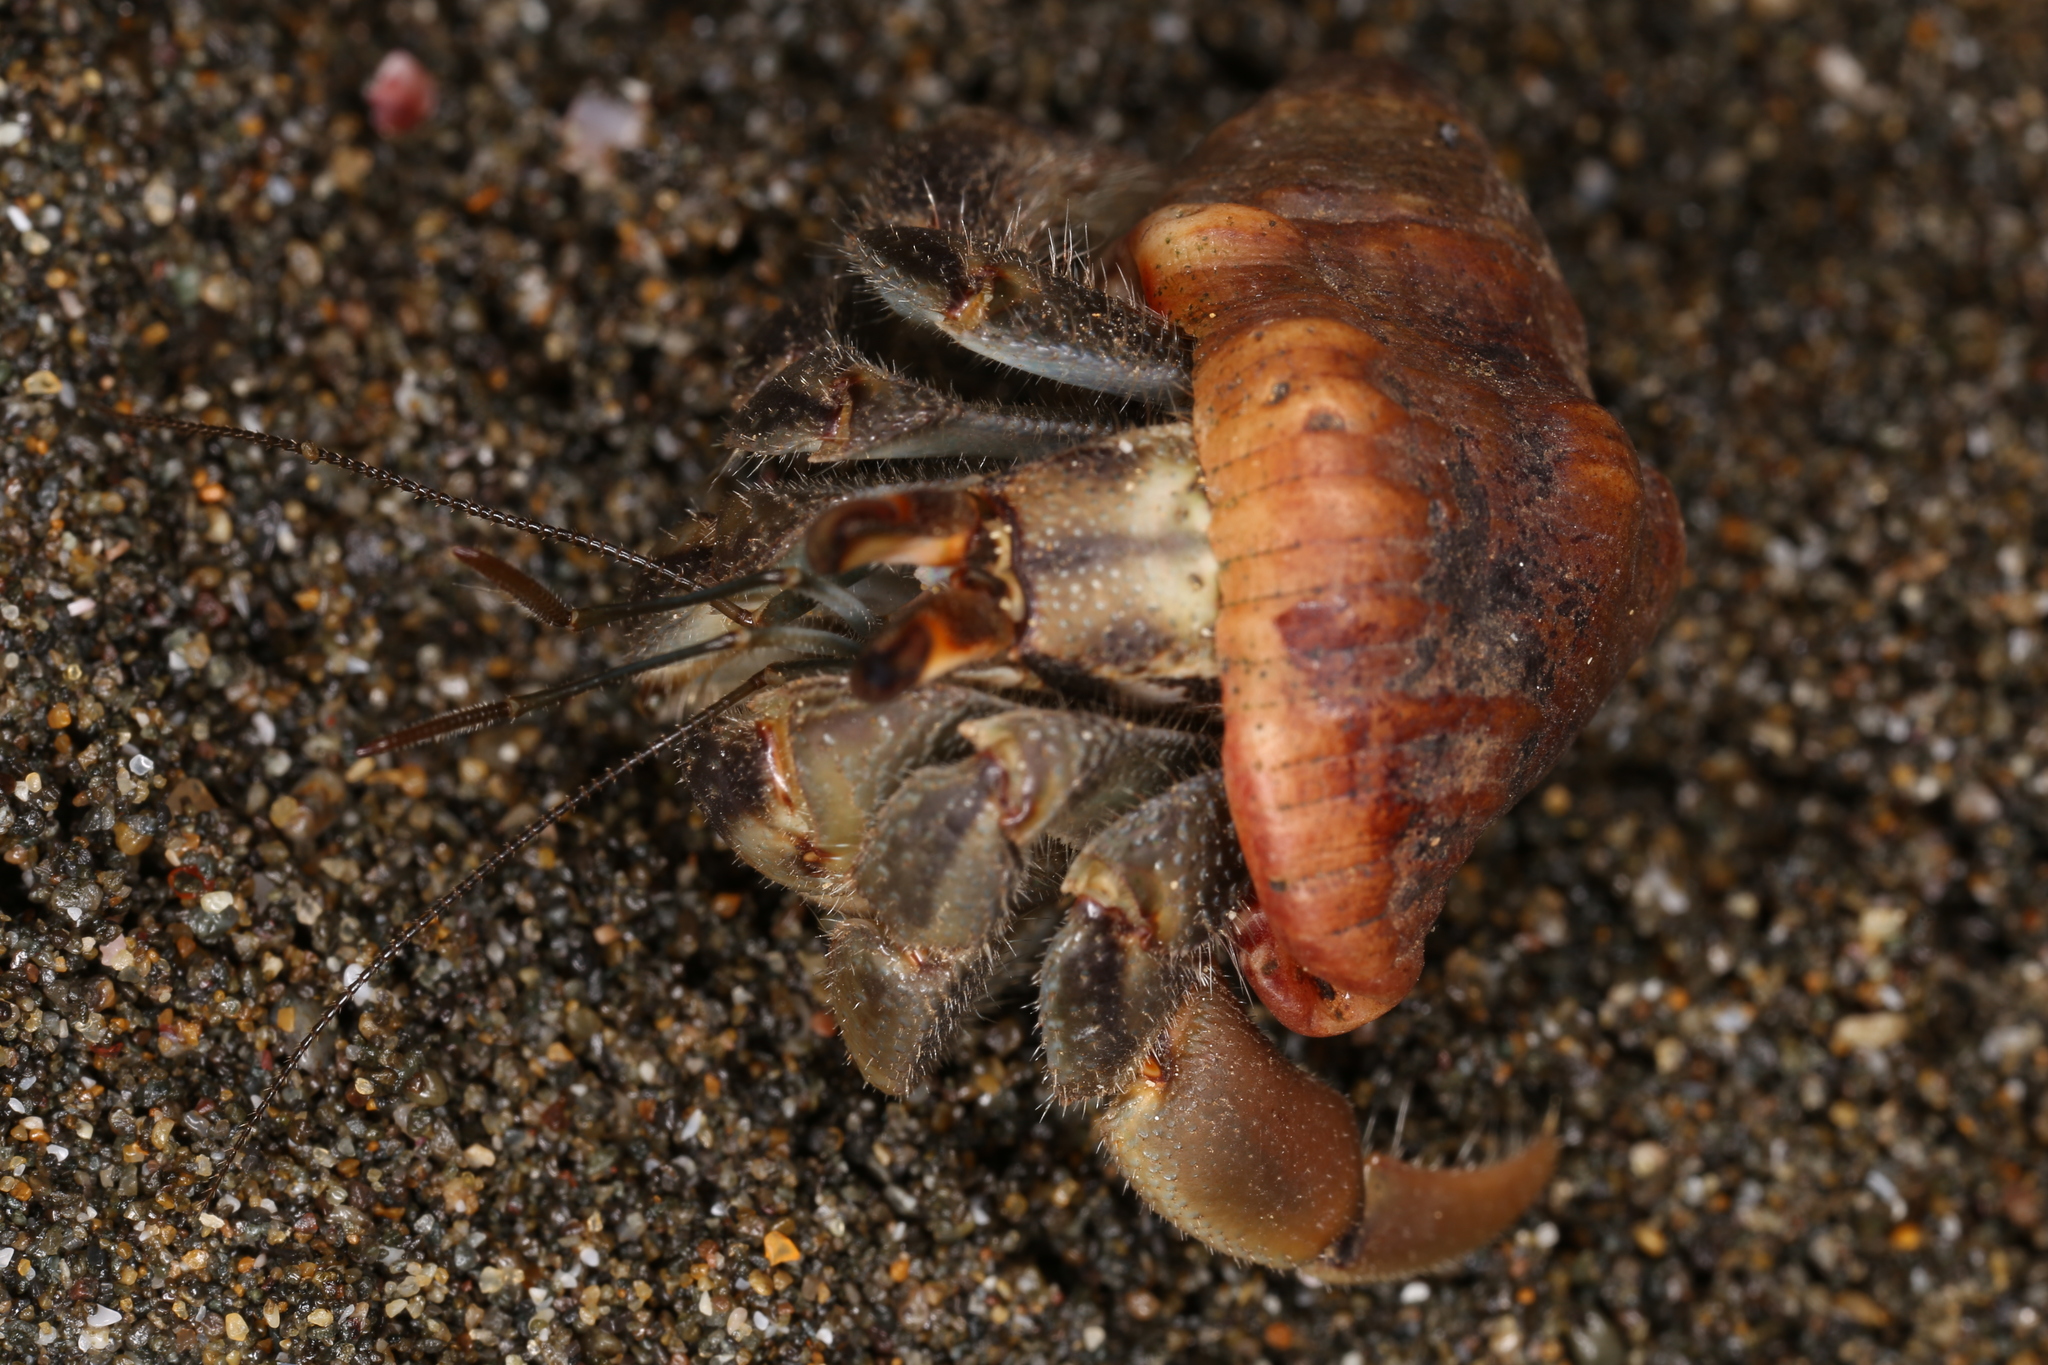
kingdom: Animalia
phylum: Arthropoda
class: Malacostraca
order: Decapoda
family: Coenobitidae
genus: Coenobita
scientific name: Coenobita compressus
